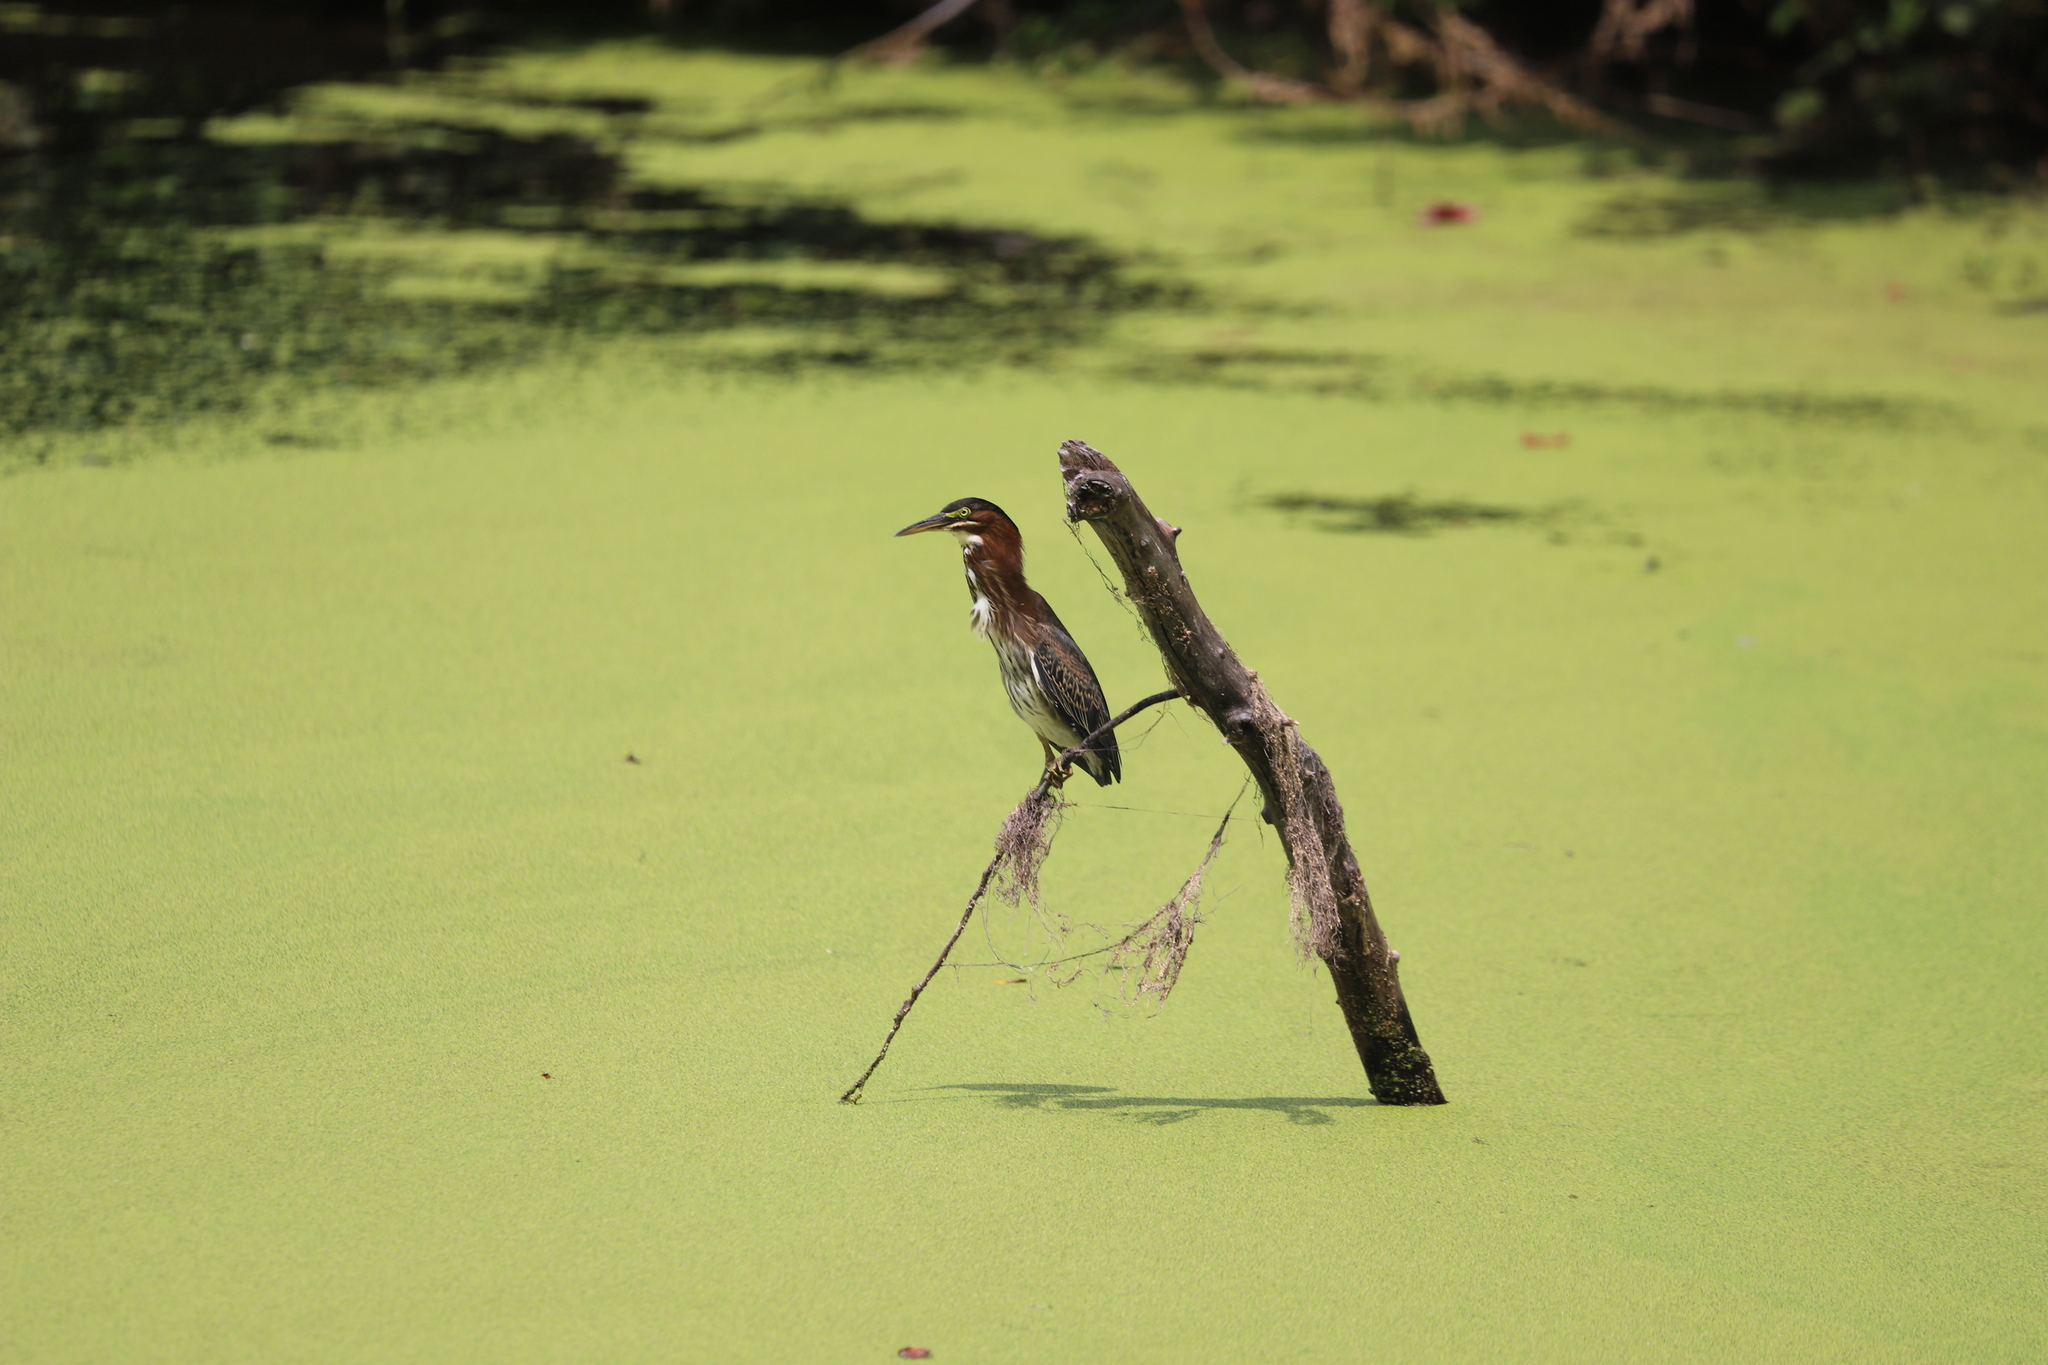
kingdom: Animalia
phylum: Chordata
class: Aves
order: Pelecaniformes
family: Ardeidae
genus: Butorides
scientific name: Butorides virescens
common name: Green heron
